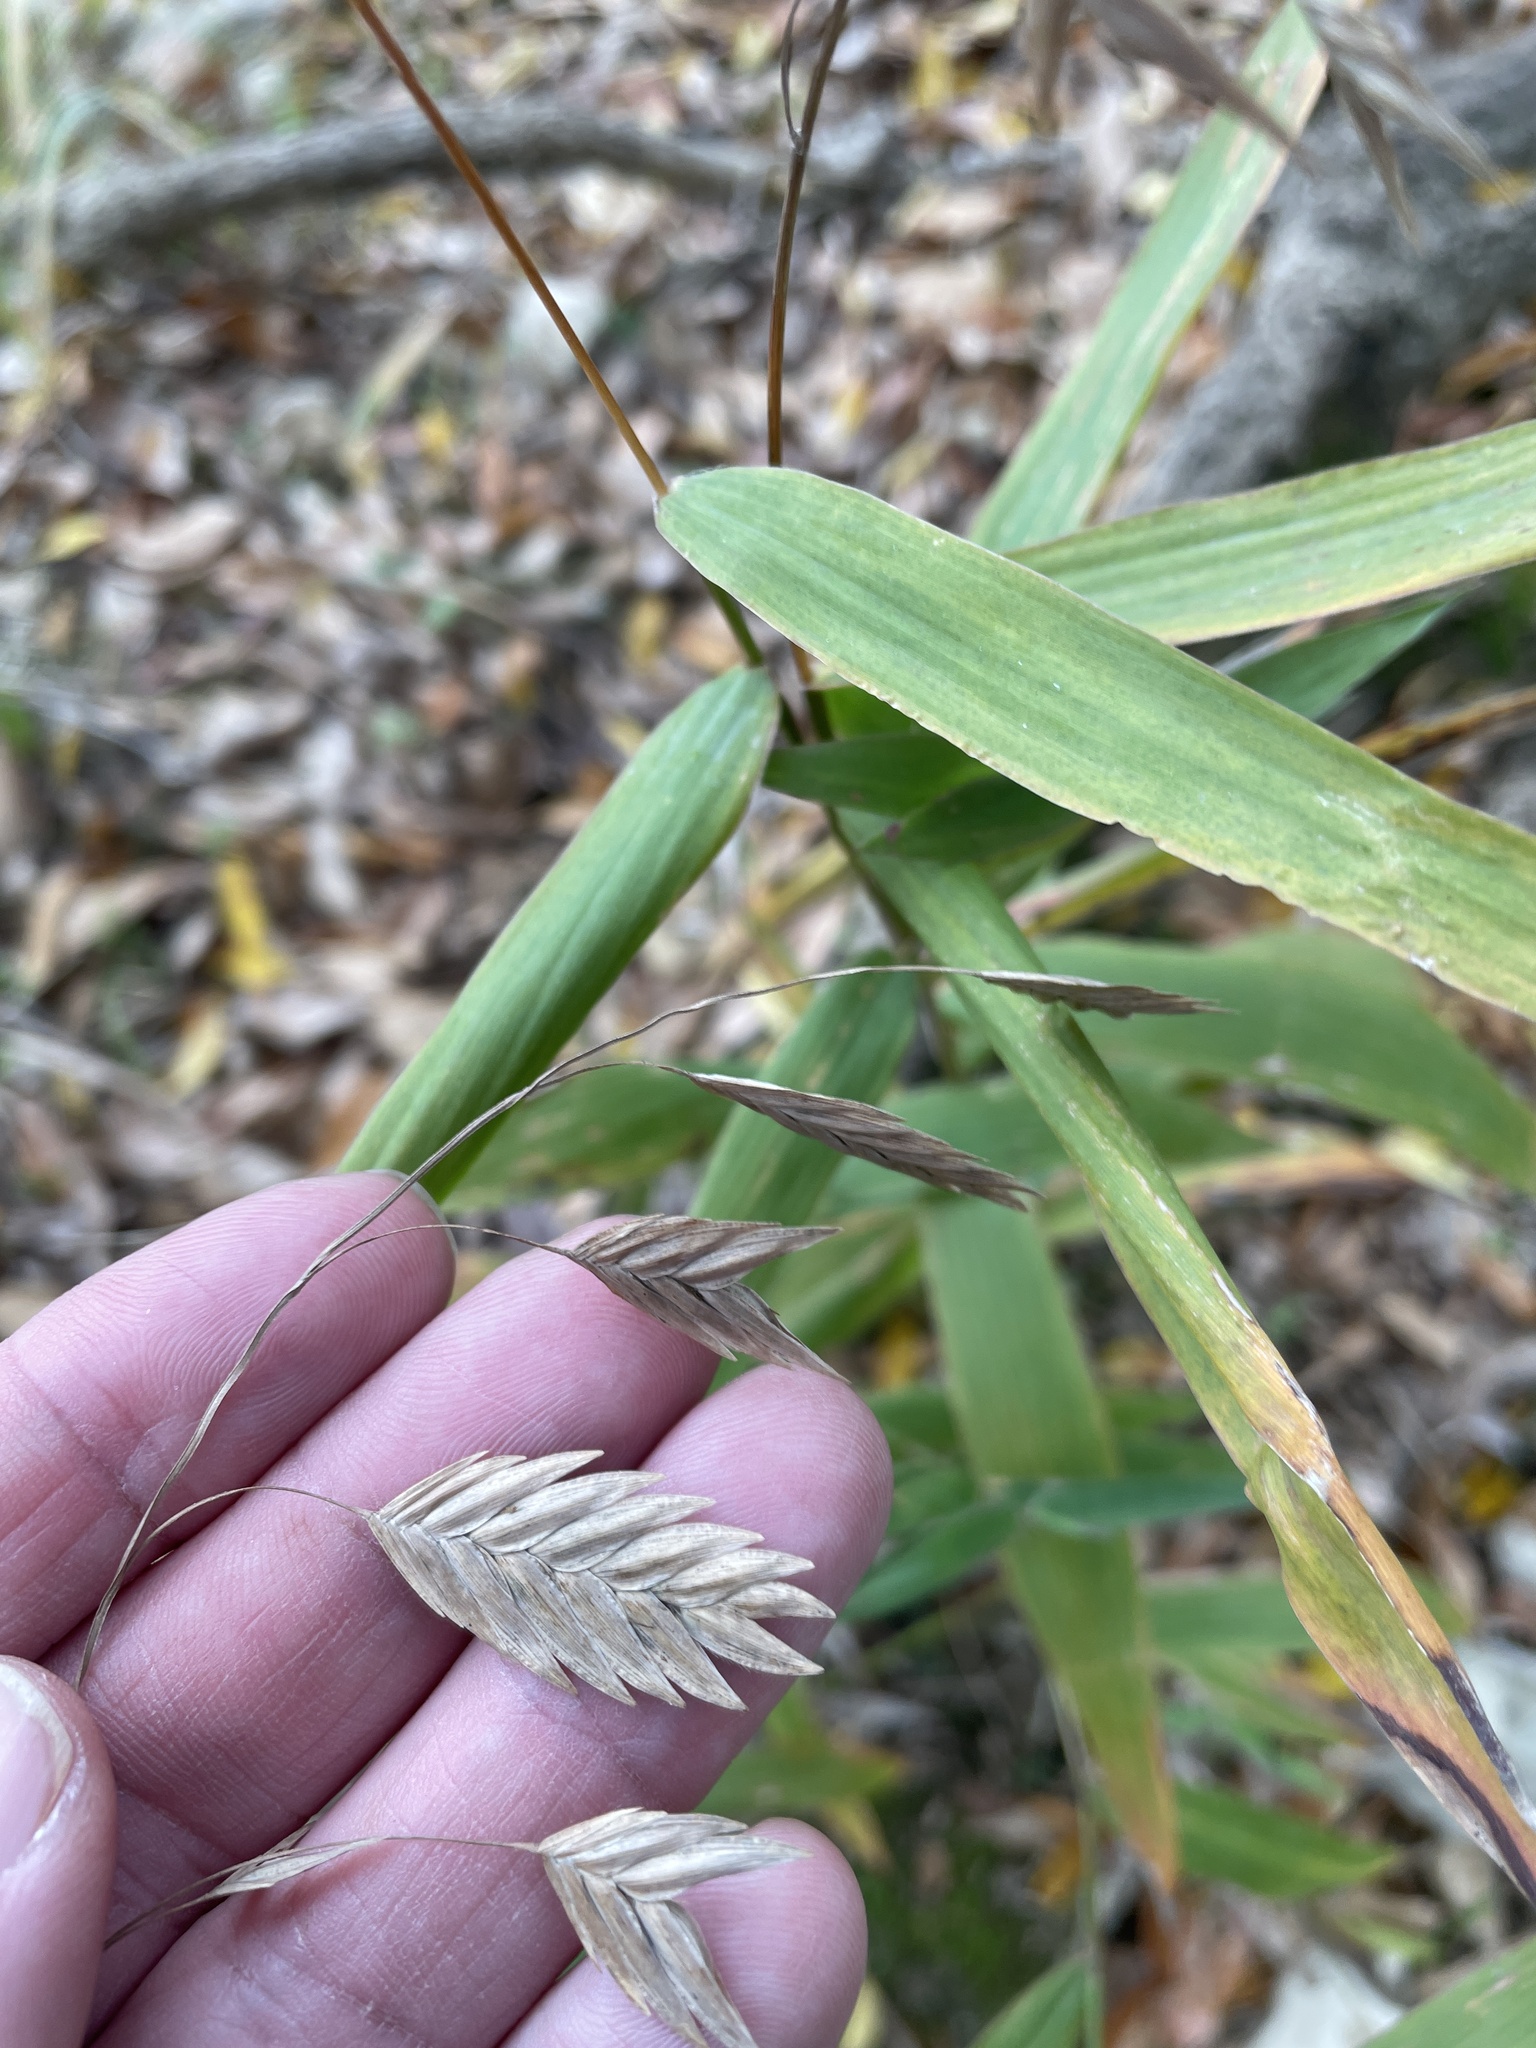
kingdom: Plantae
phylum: Tracheophyta
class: Liliopsida
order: Poales
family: Poaceae
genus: Chasmanthium
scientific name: Chasmanthium latifolium
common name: Broad-leaved chasmanthium
